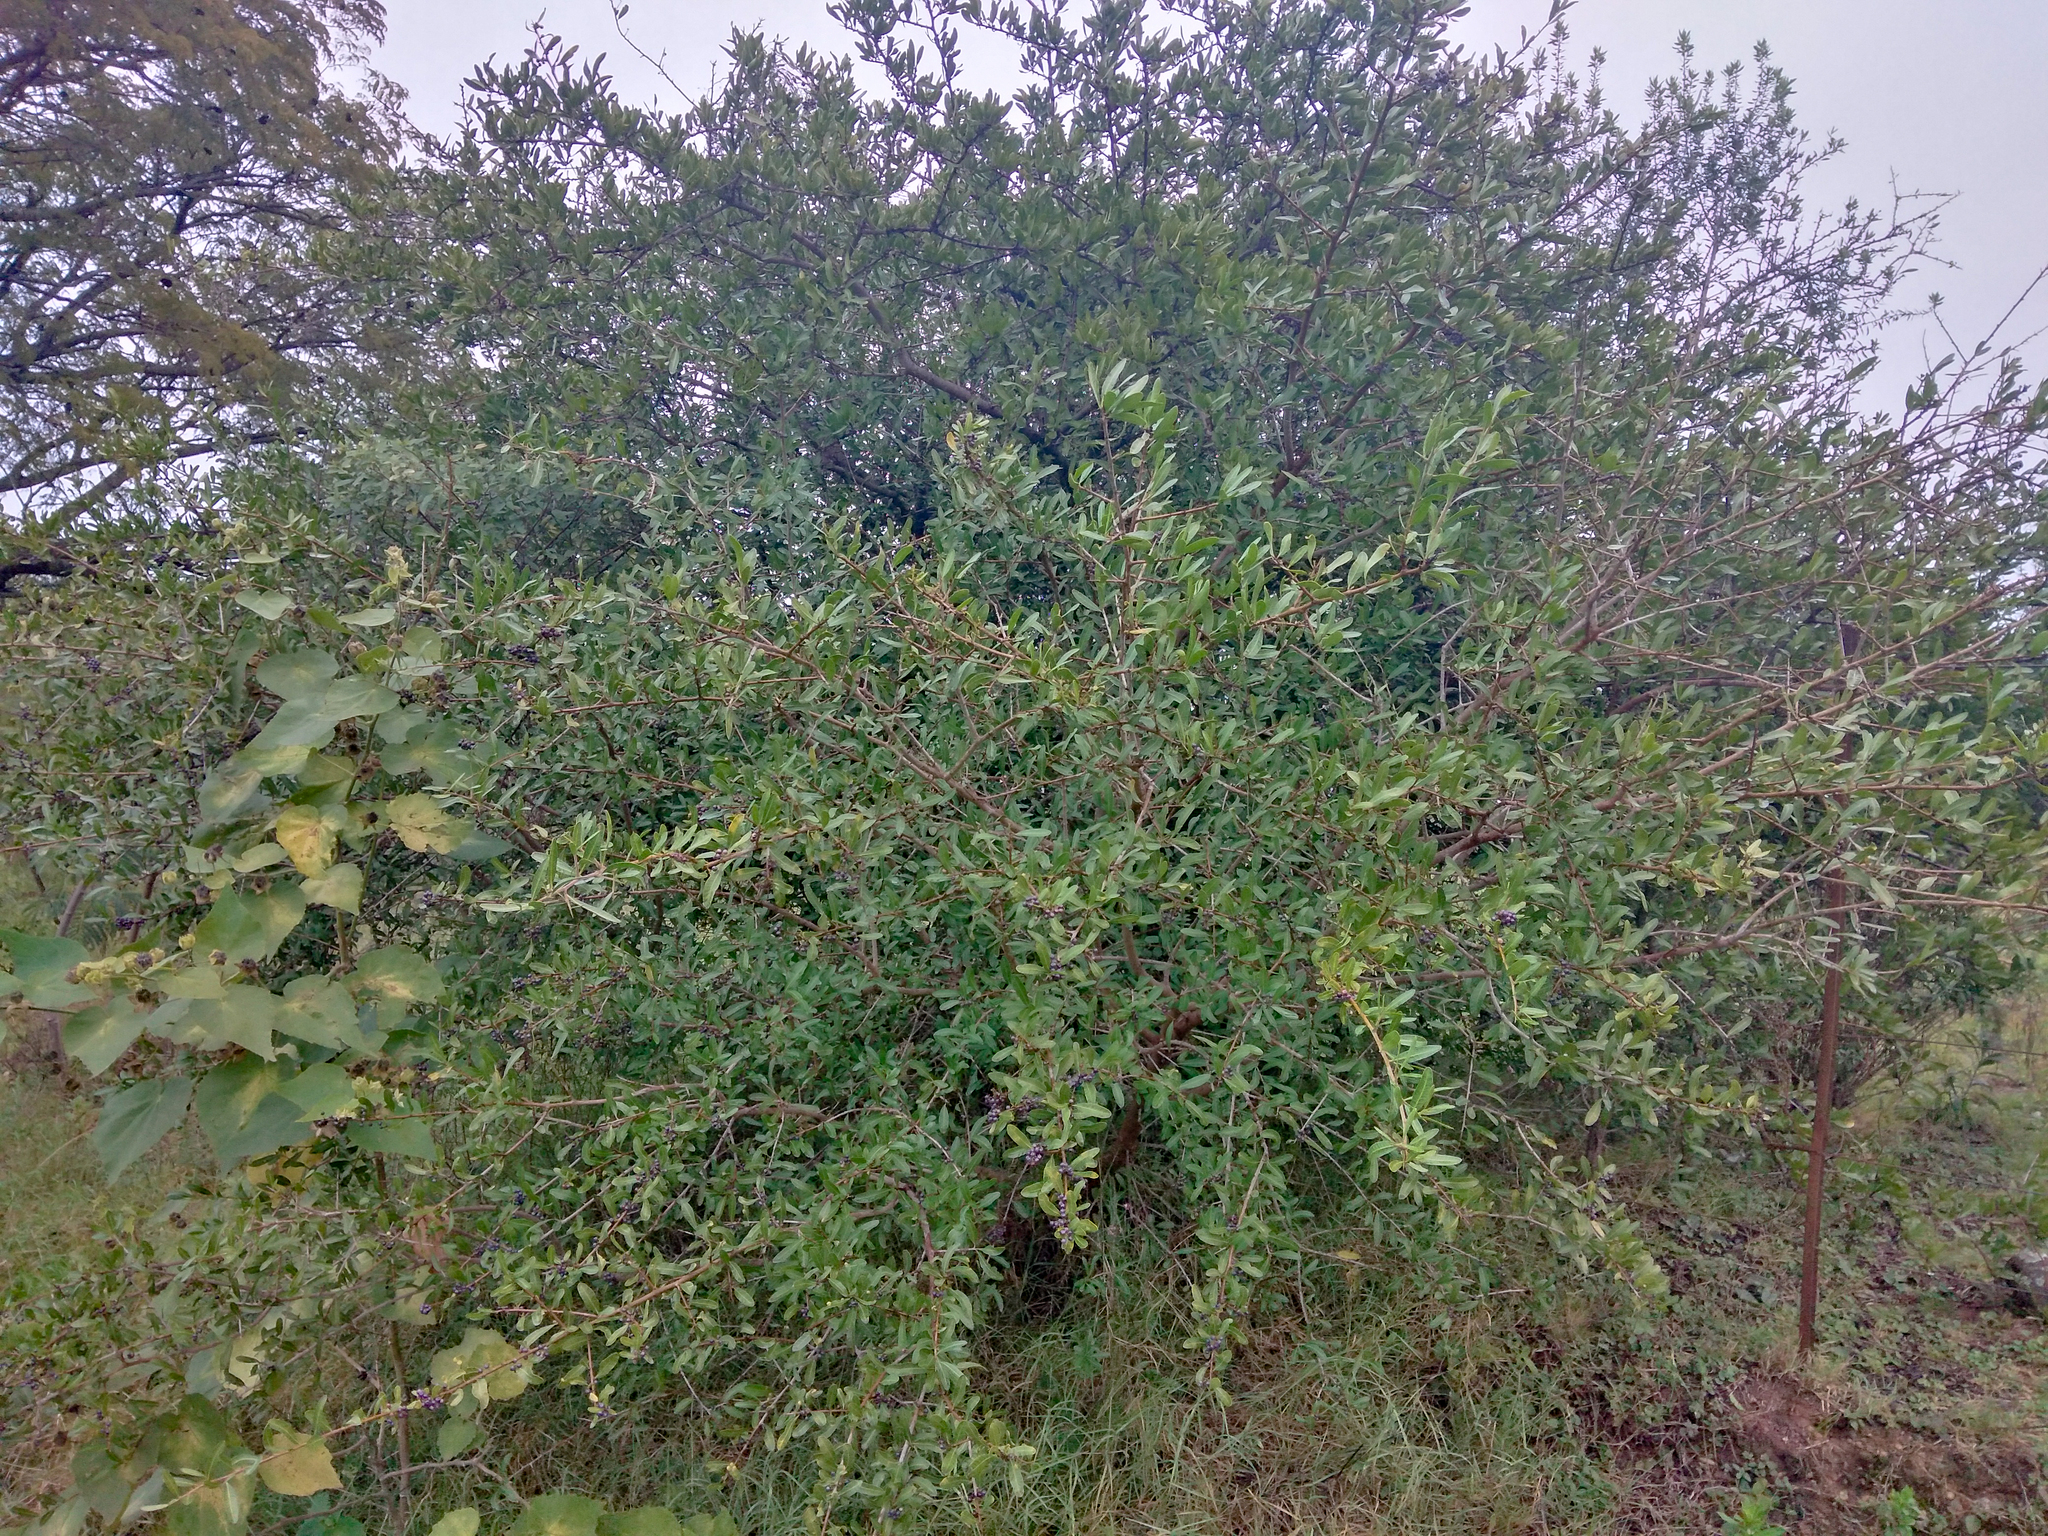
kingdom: Plantae
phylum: Tracheophyta
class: Magnoliopsida
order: Sapindales
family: Anacardiaceae
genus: Schinus
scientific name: Schinus longifolia
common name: Longleaf peppertree
